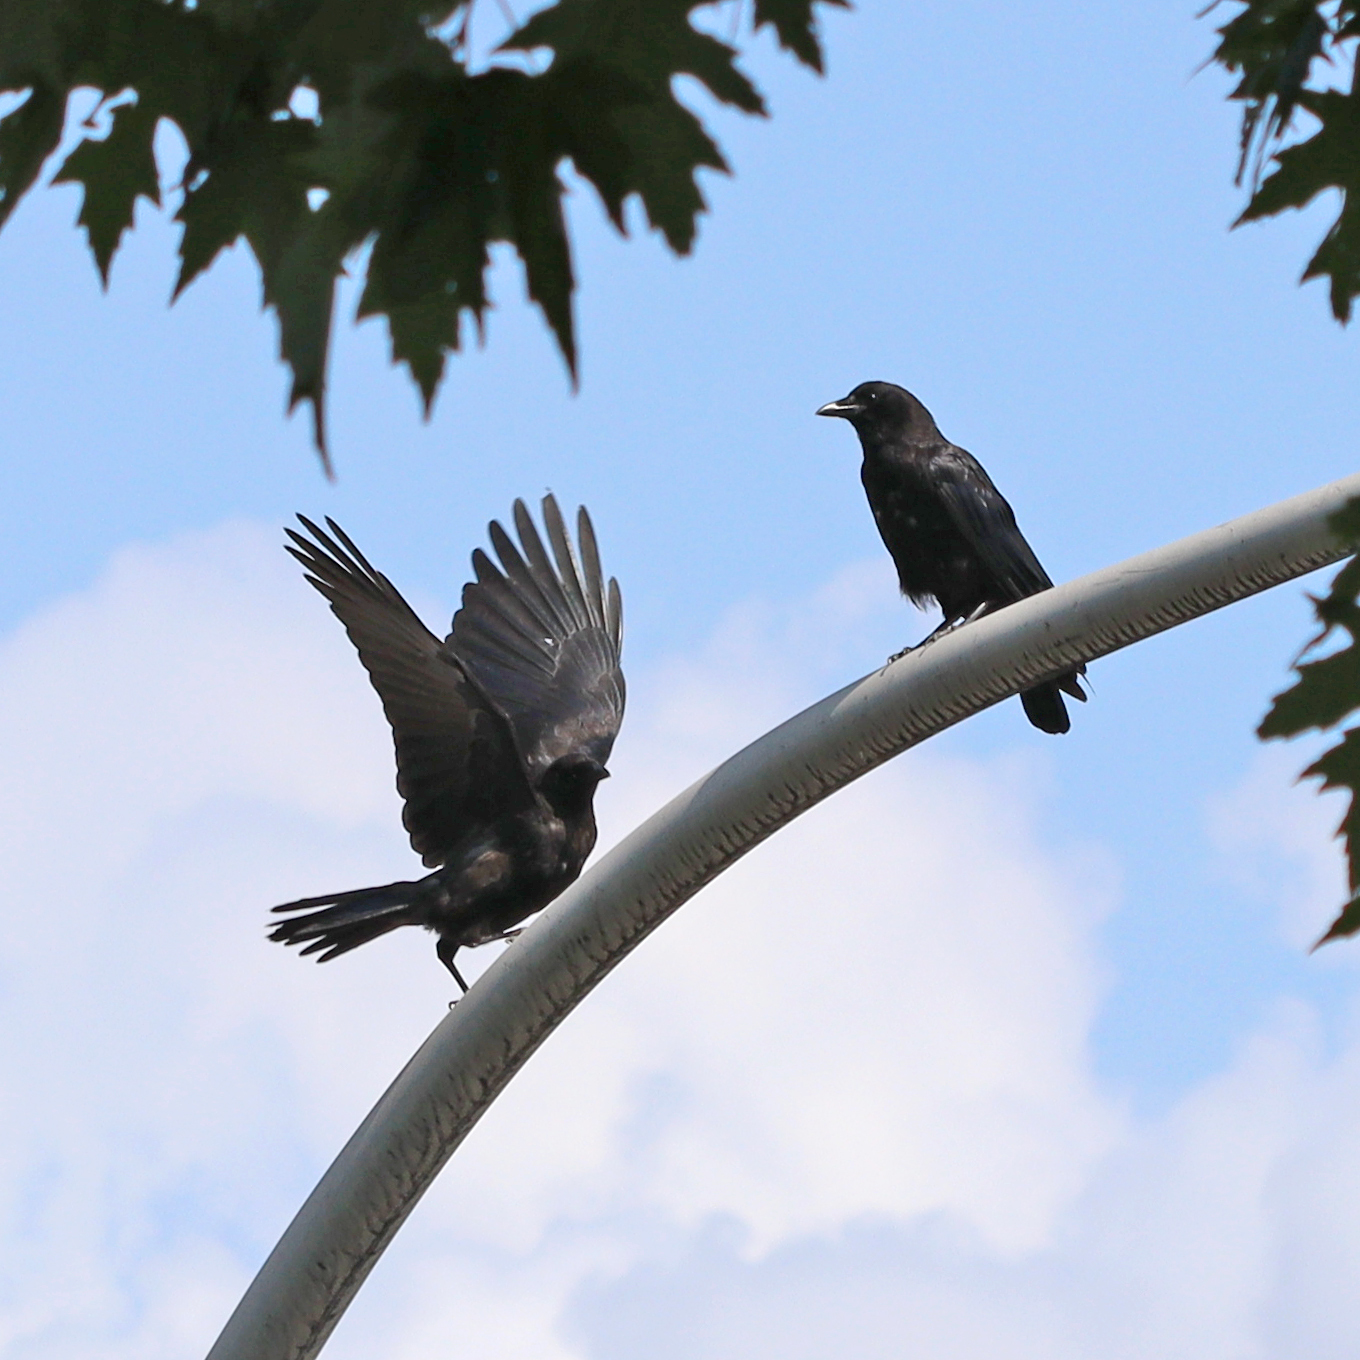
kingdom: Animalia
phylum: Chordata
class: Aves
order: Passeriformes
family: Corvidae
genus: Corvus
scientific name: Corvus brachyrhynchos
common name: American crow
